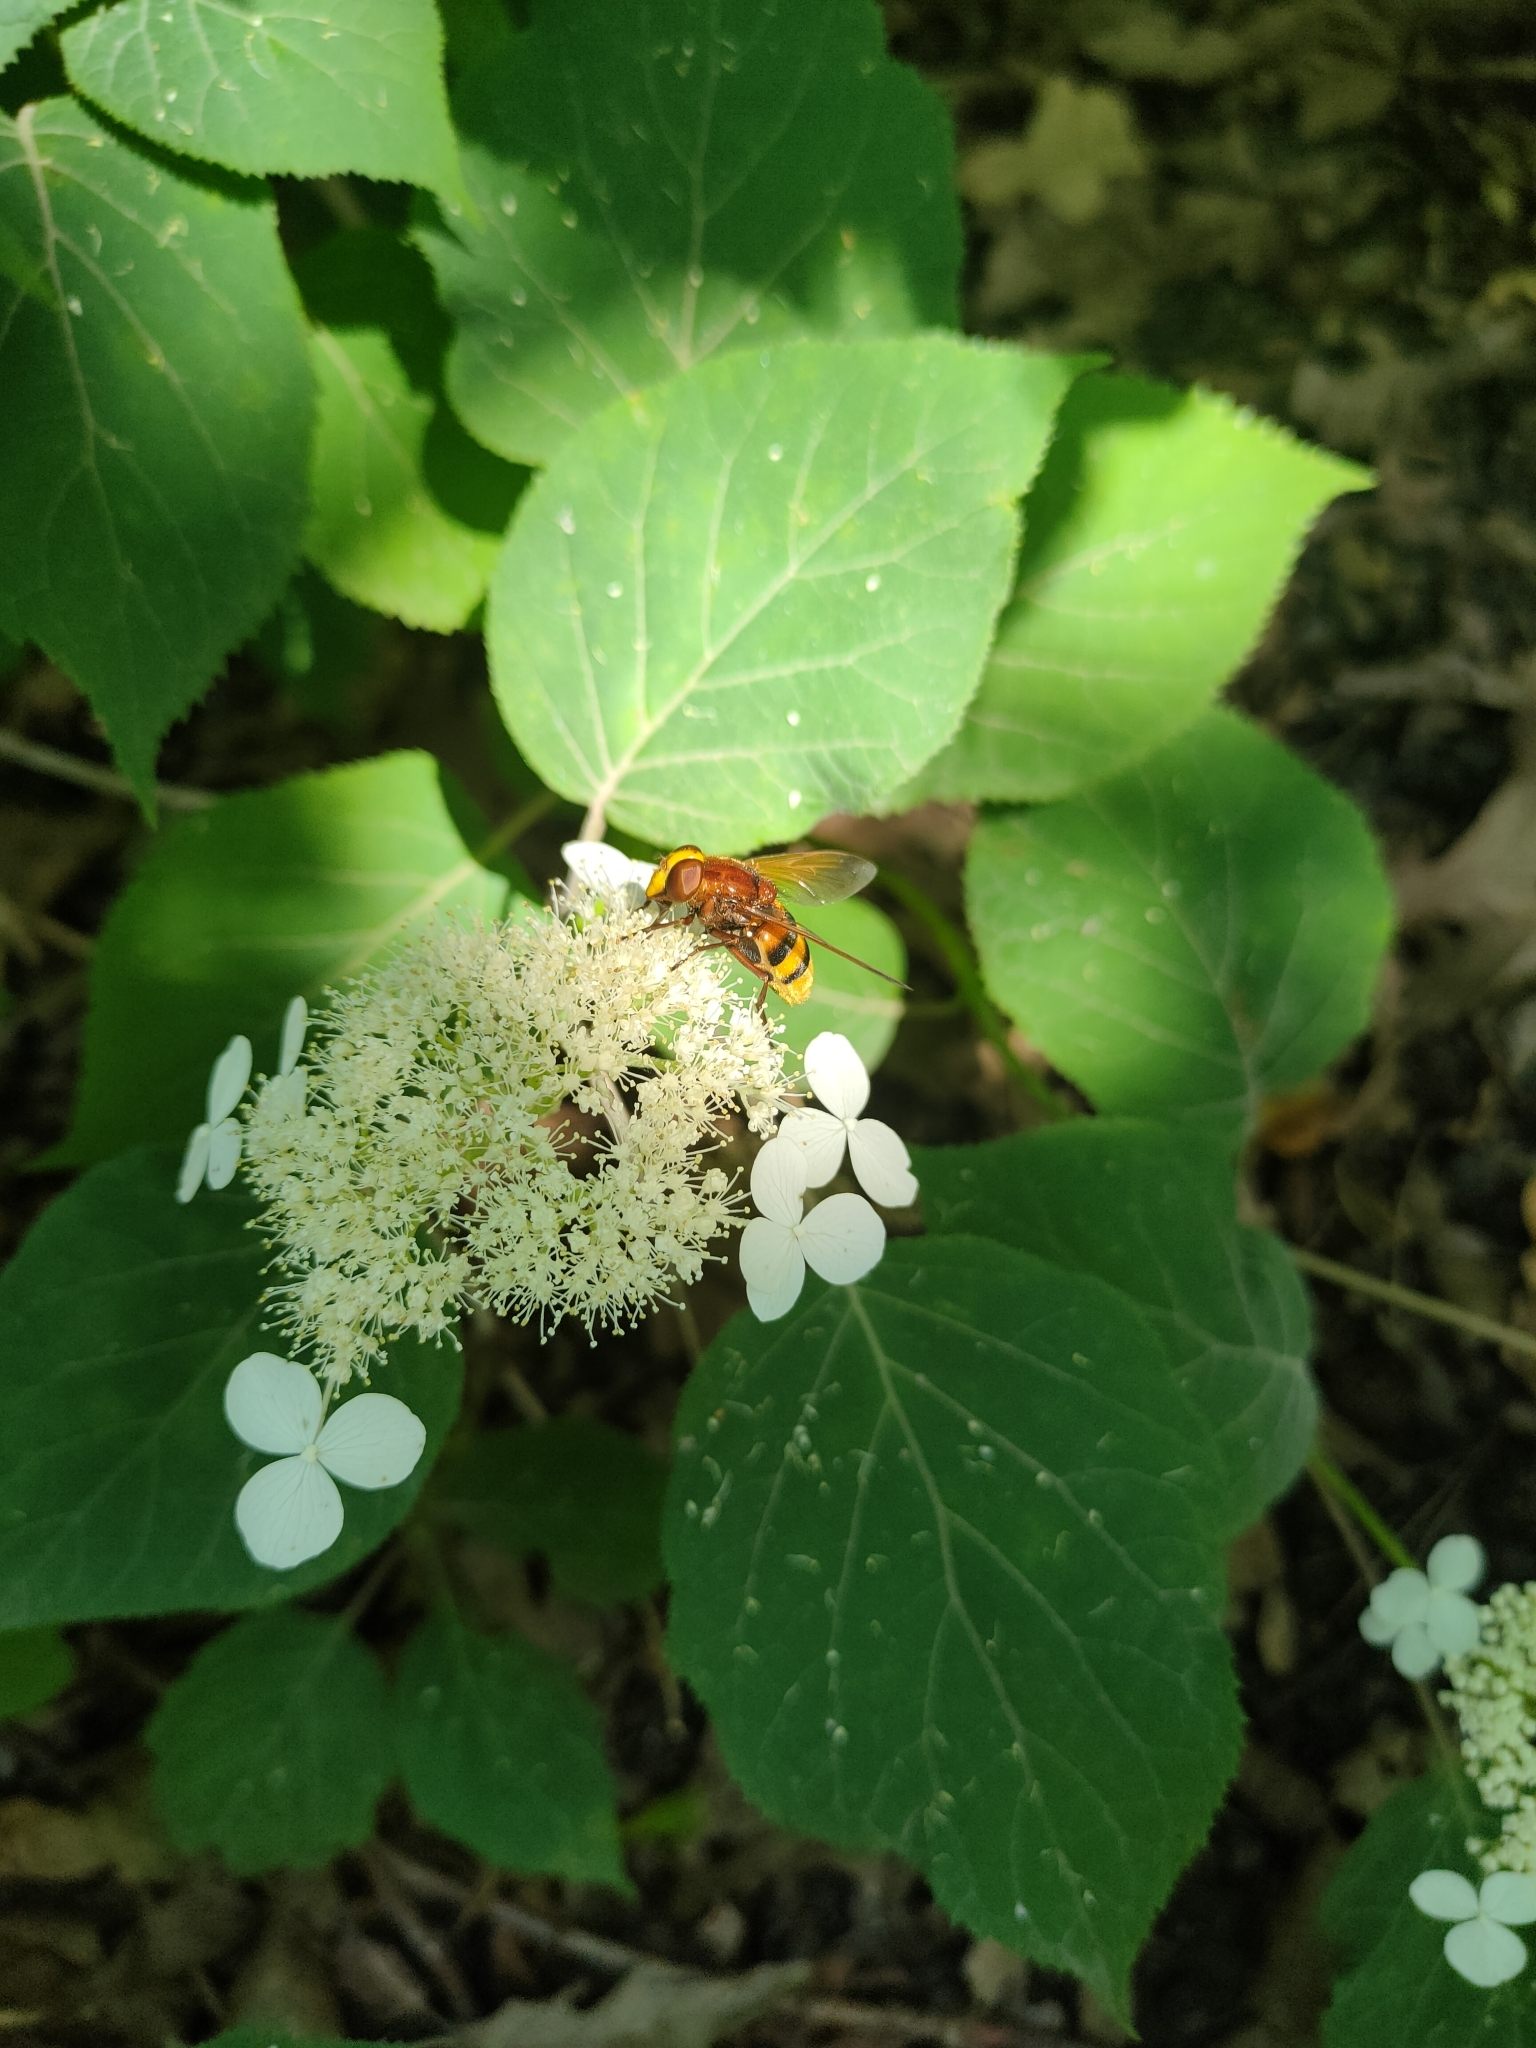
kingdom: Animalia
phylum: Arthropoda
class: Insecta
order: Diptera
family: Syrphidae
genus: Volucella
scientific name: Volucella zonaria
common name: Hornet hoverfly
